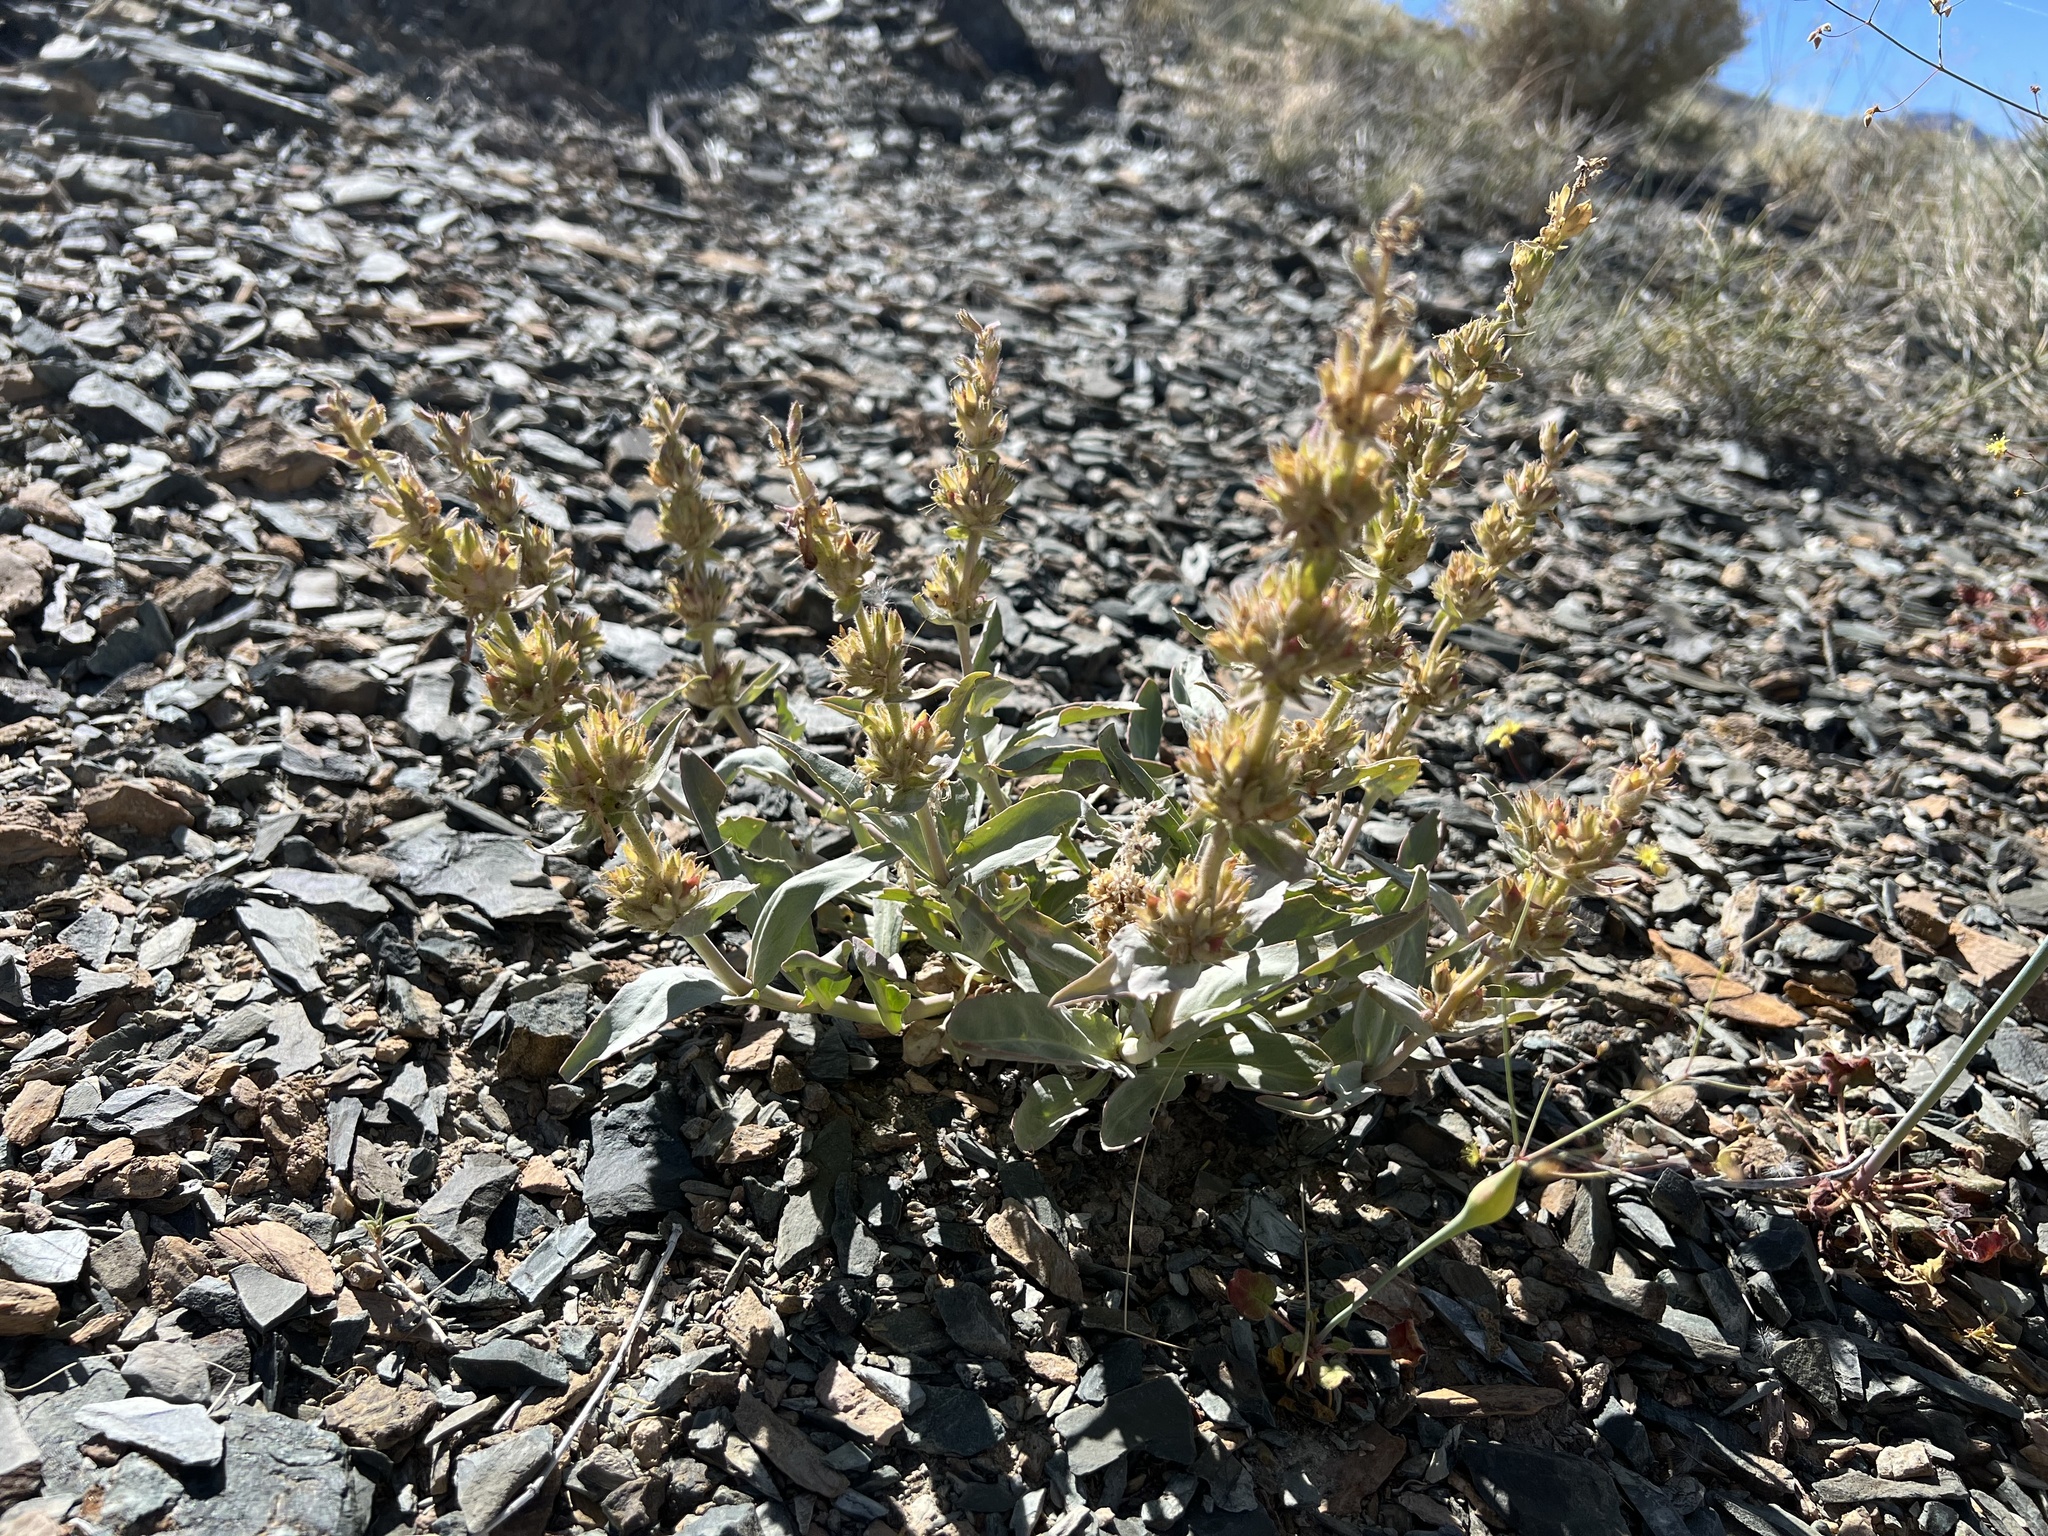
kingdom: Plantae
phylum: Tracheophyta
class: Magnoliopsida
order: Lamiales
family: Plantaginaceae
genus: Penstemon
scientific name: Penstemon monoensis
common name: Mono penstemon
